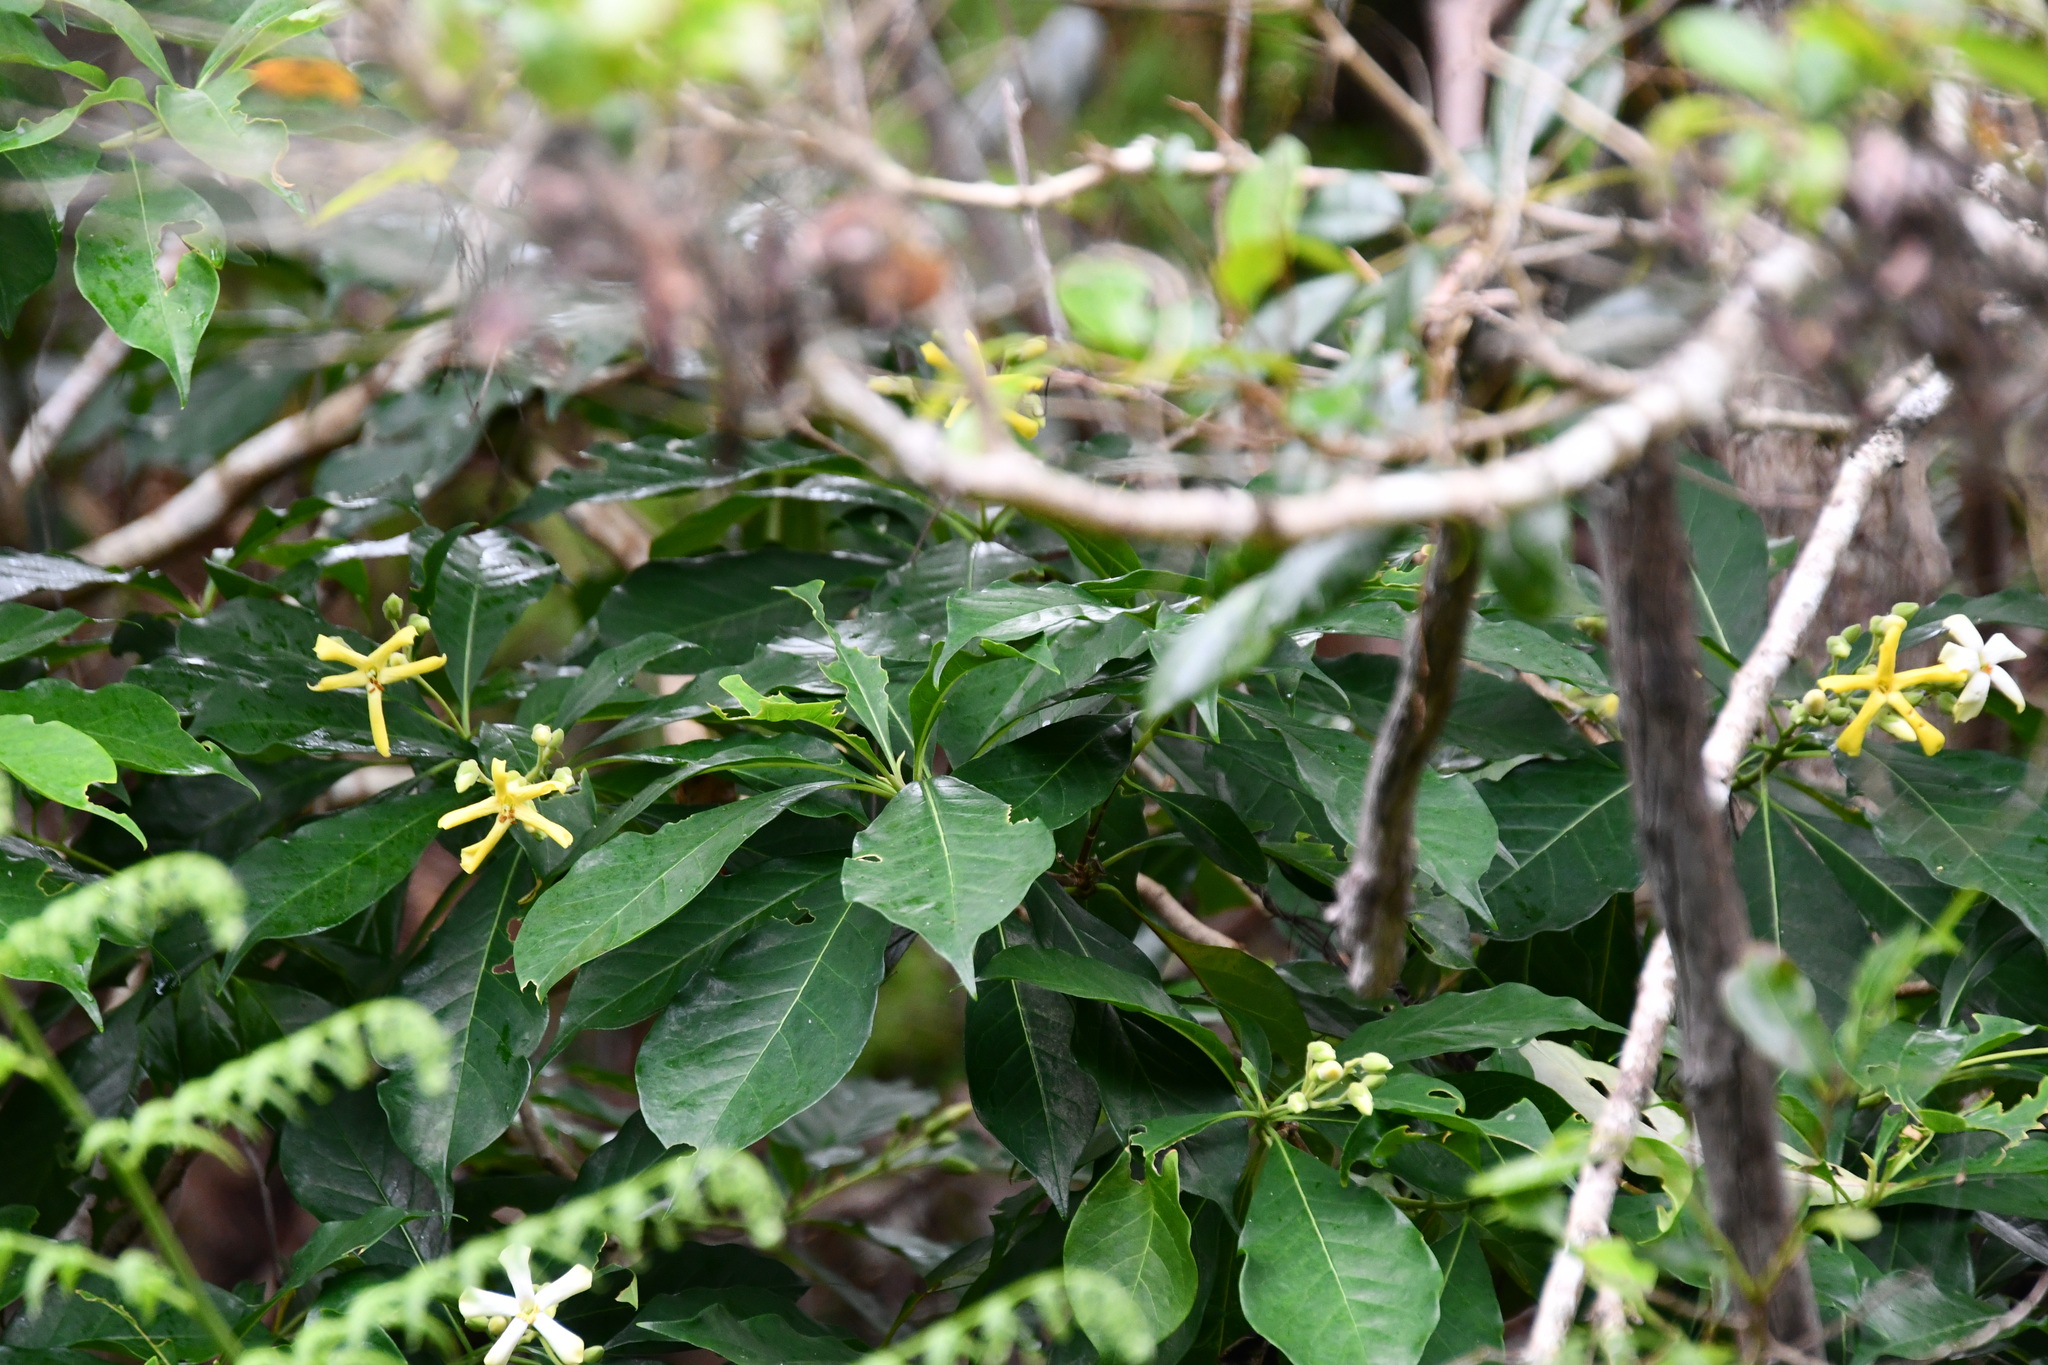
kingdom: Plantae
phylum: Tracheophyta
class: Magnoliopsida
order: Apiales
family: Pittosporaceae
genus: Hymenosporum
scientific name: Hymenosporum flavum
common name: Native frangipani
